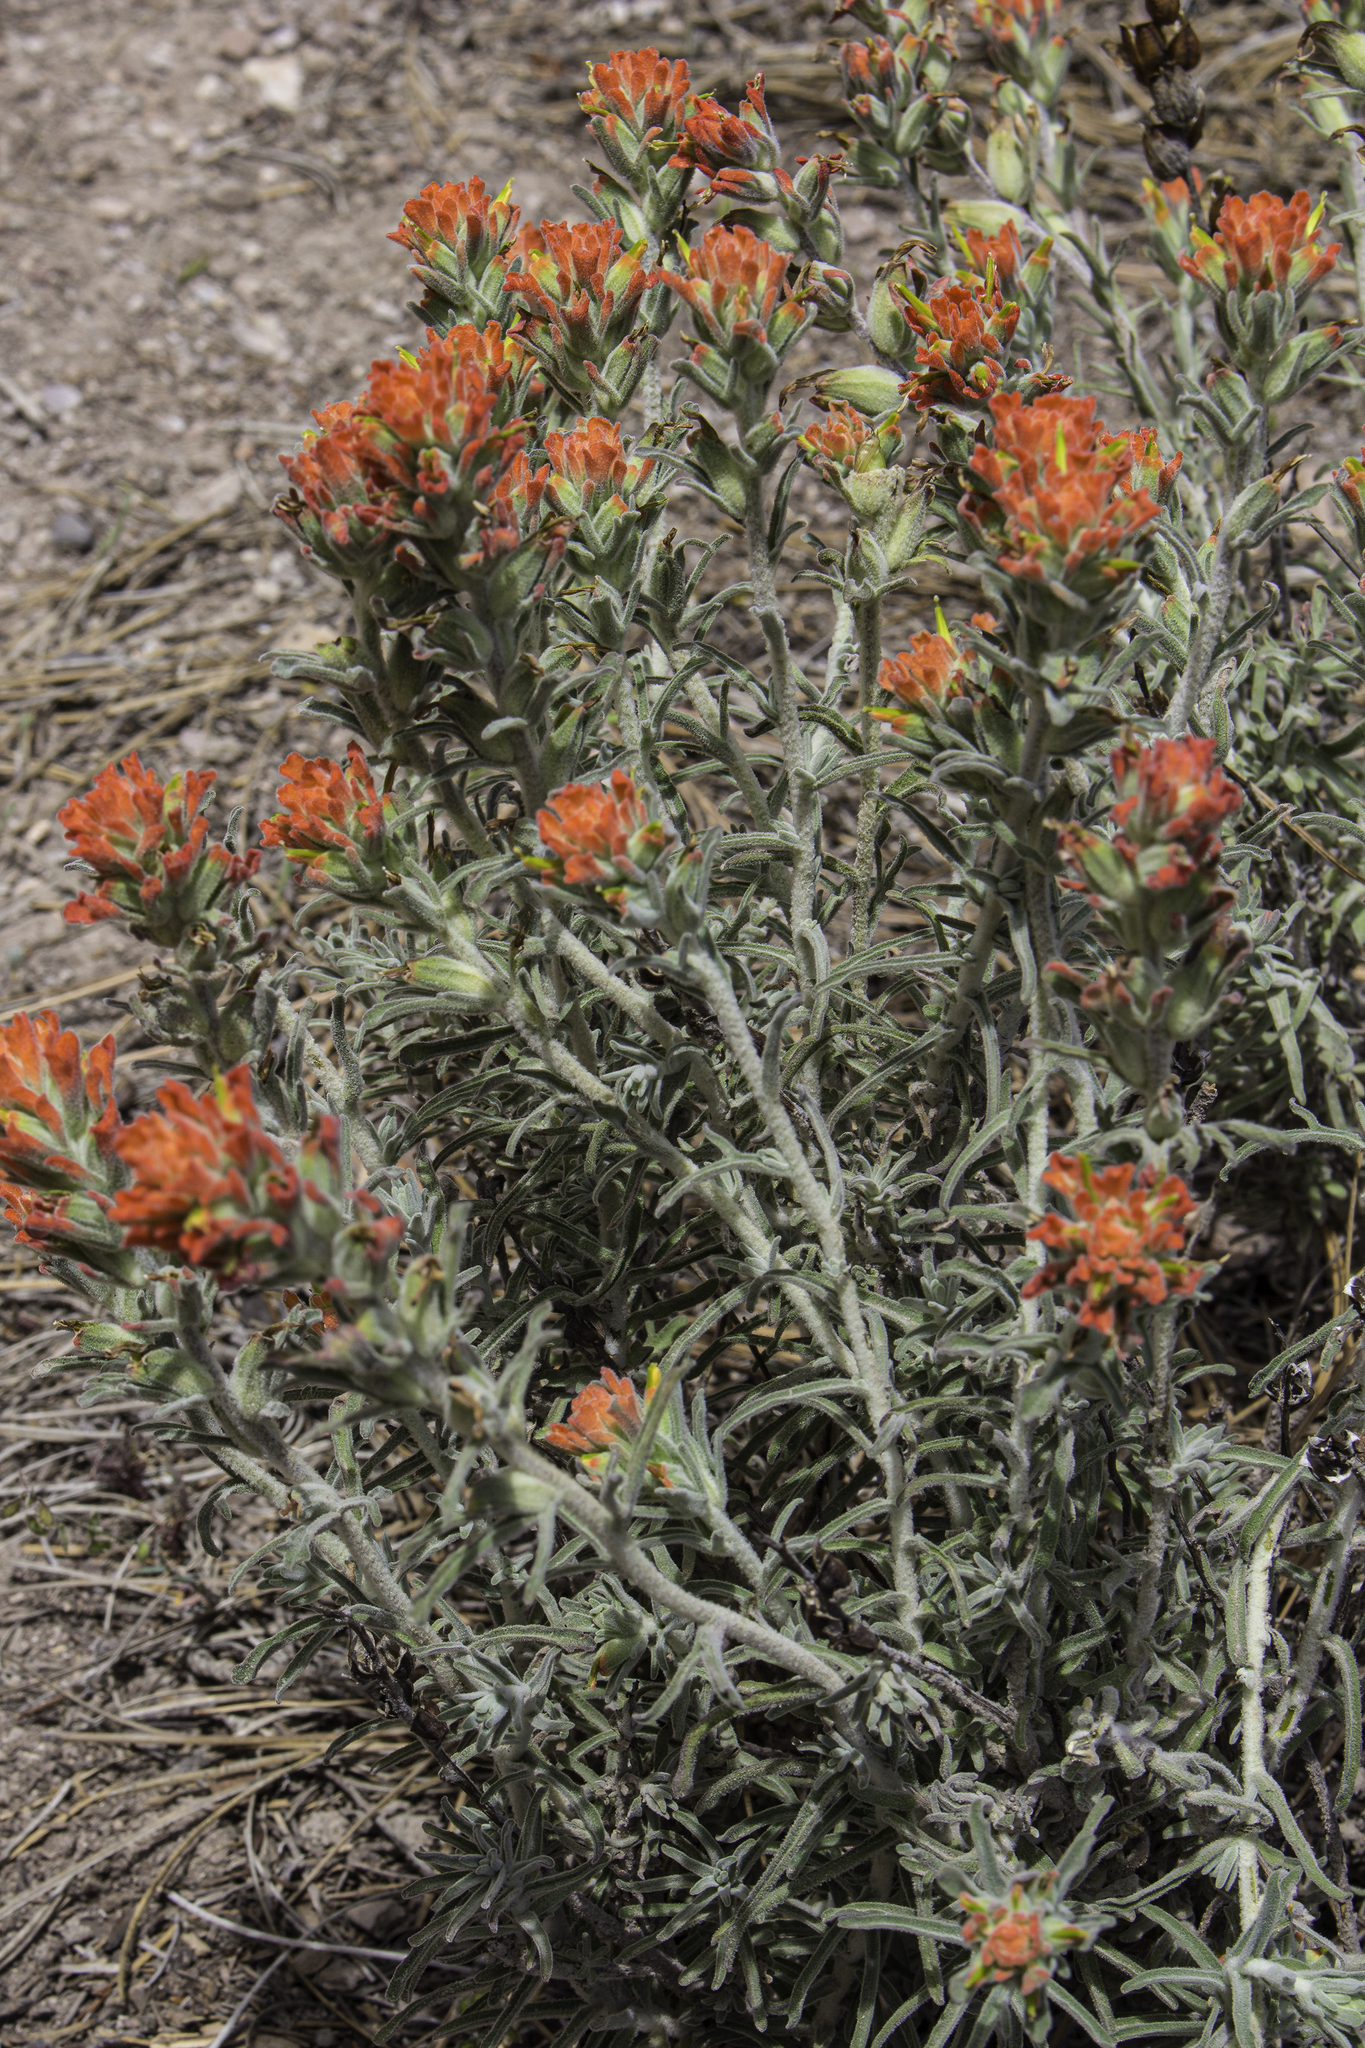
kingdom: Plantae
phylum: Tracheophyta
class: Magnoliopsida
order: Lamiales
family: Orobanchaceae
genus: Castilleja
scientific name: Castilleja foliolosa
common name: Woolly indian paintbrush
